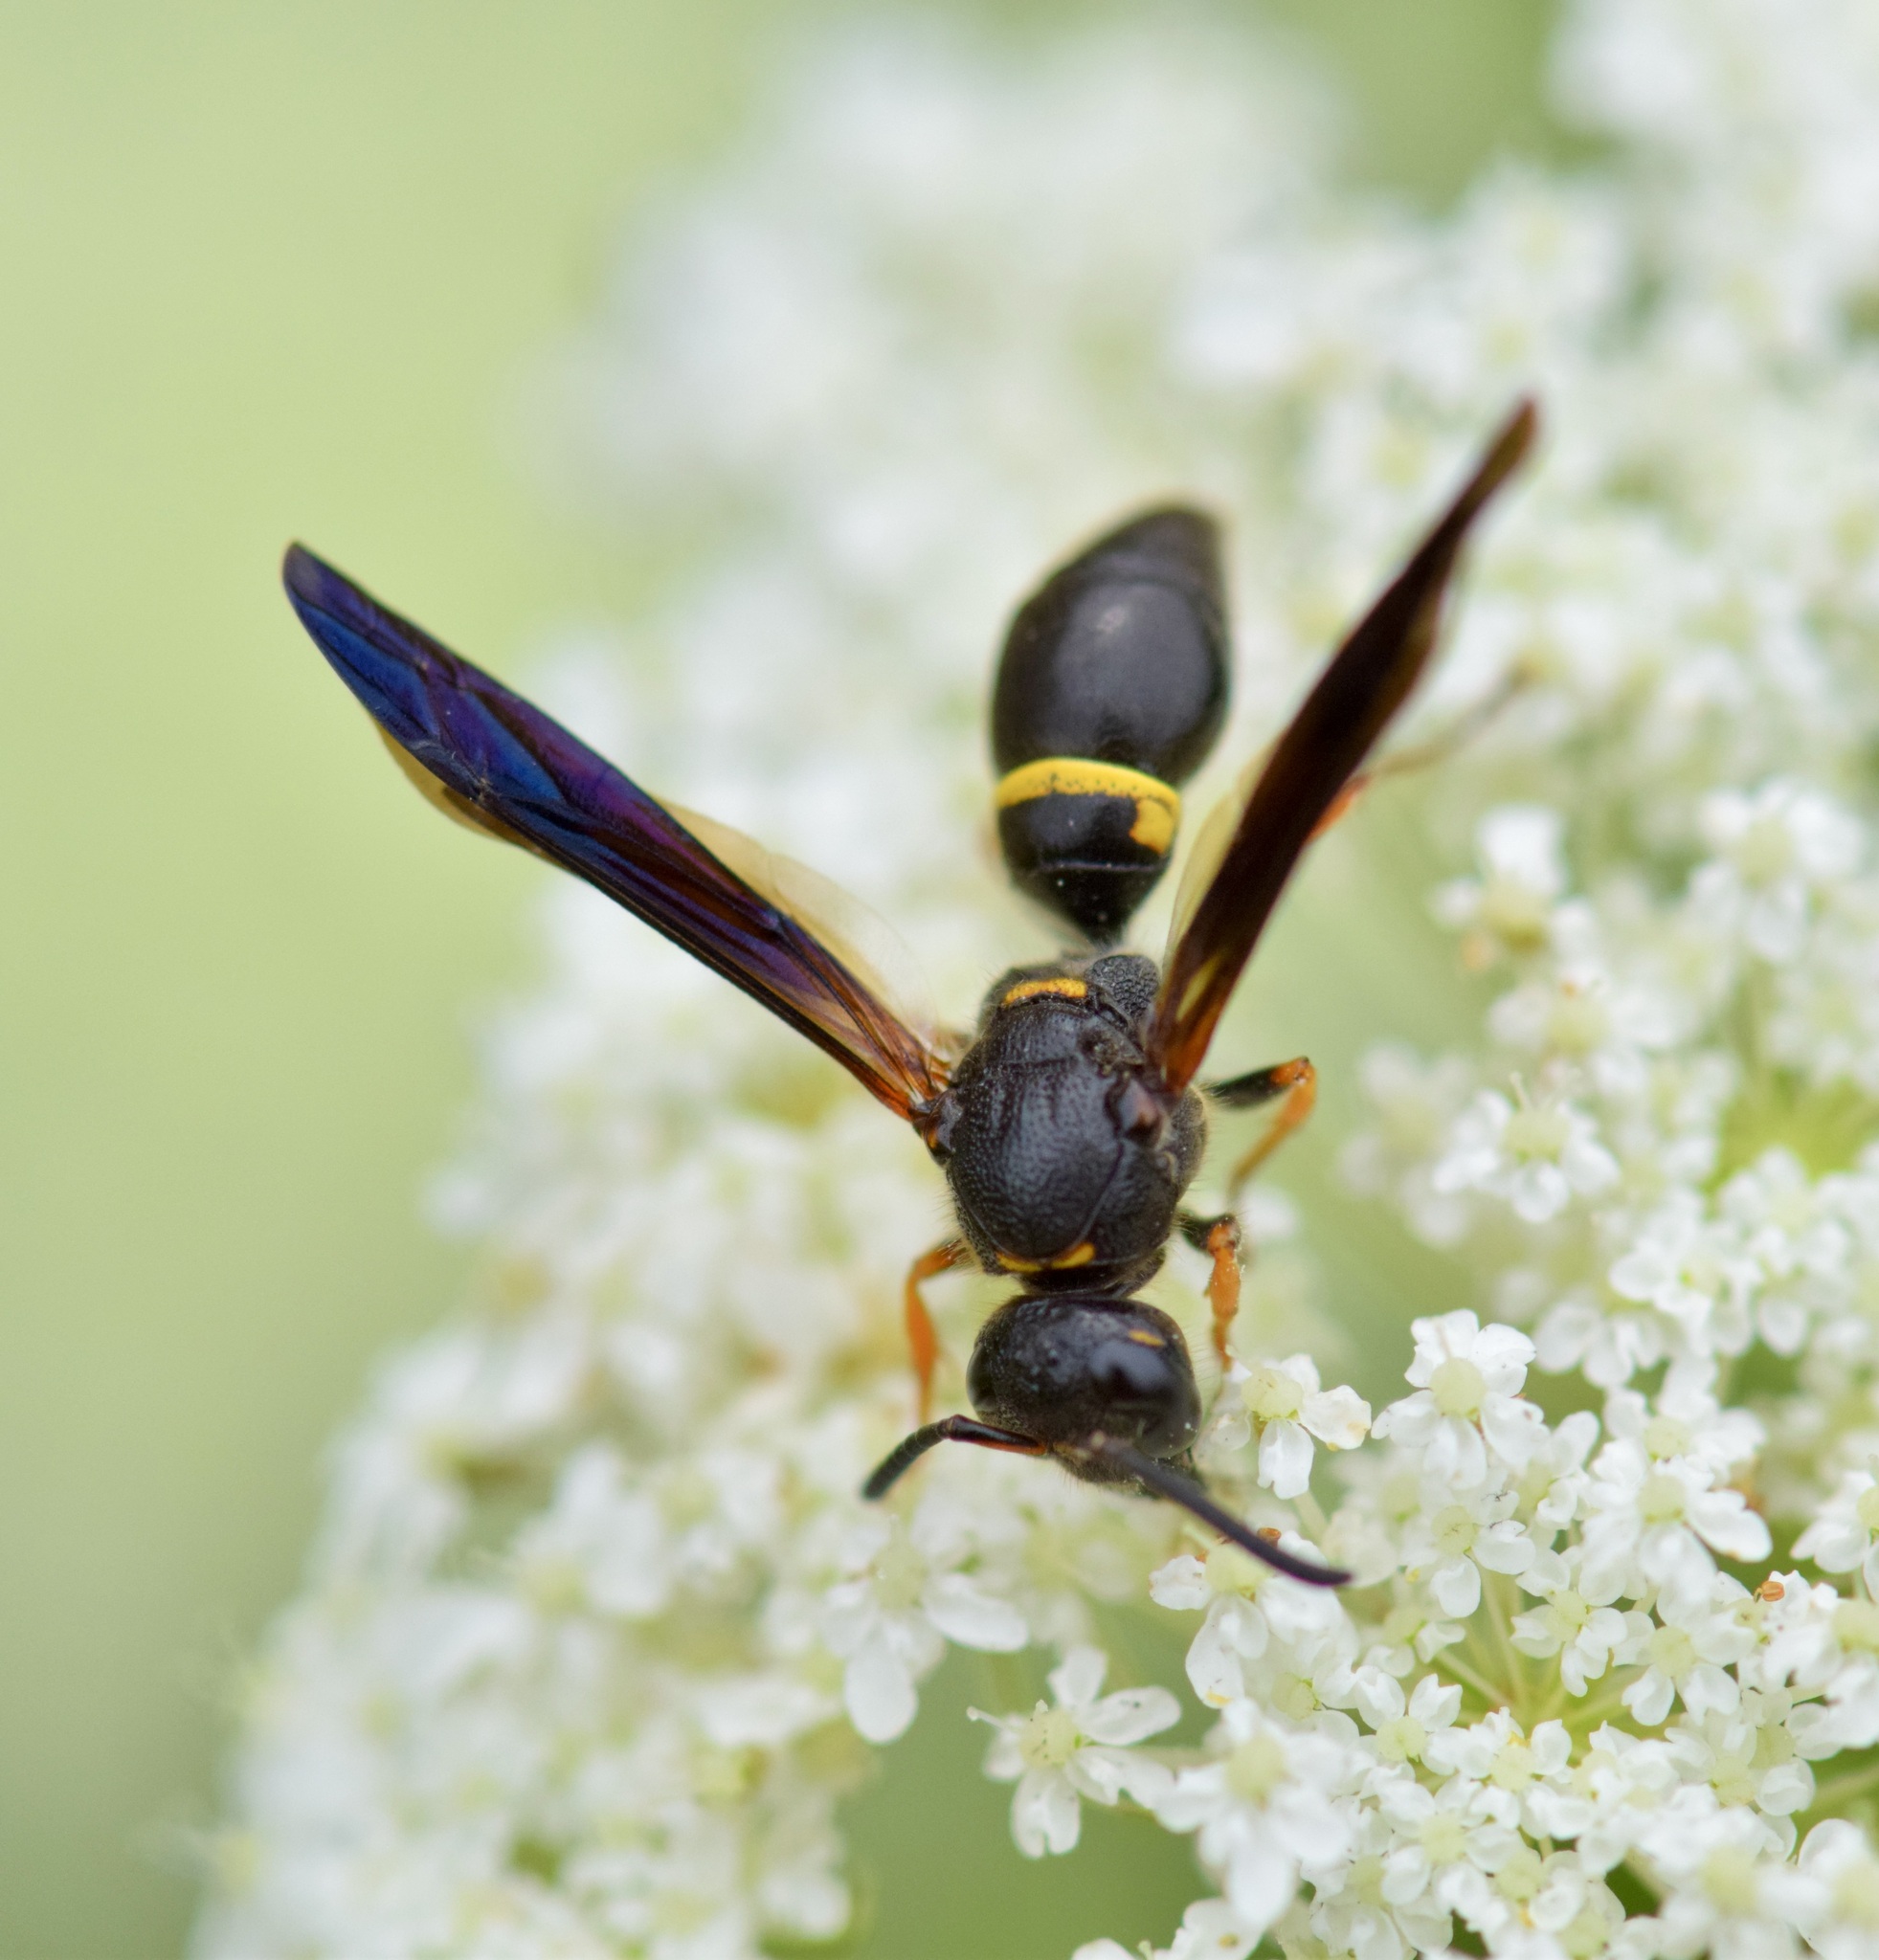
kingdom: Animalia
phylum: Arthropoda
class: Insecta
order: Hymenoptera
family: Vespidae
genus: Ancistrocerus
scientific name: Ancistrocerus unifasciatus
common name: One-banded mason wasp
